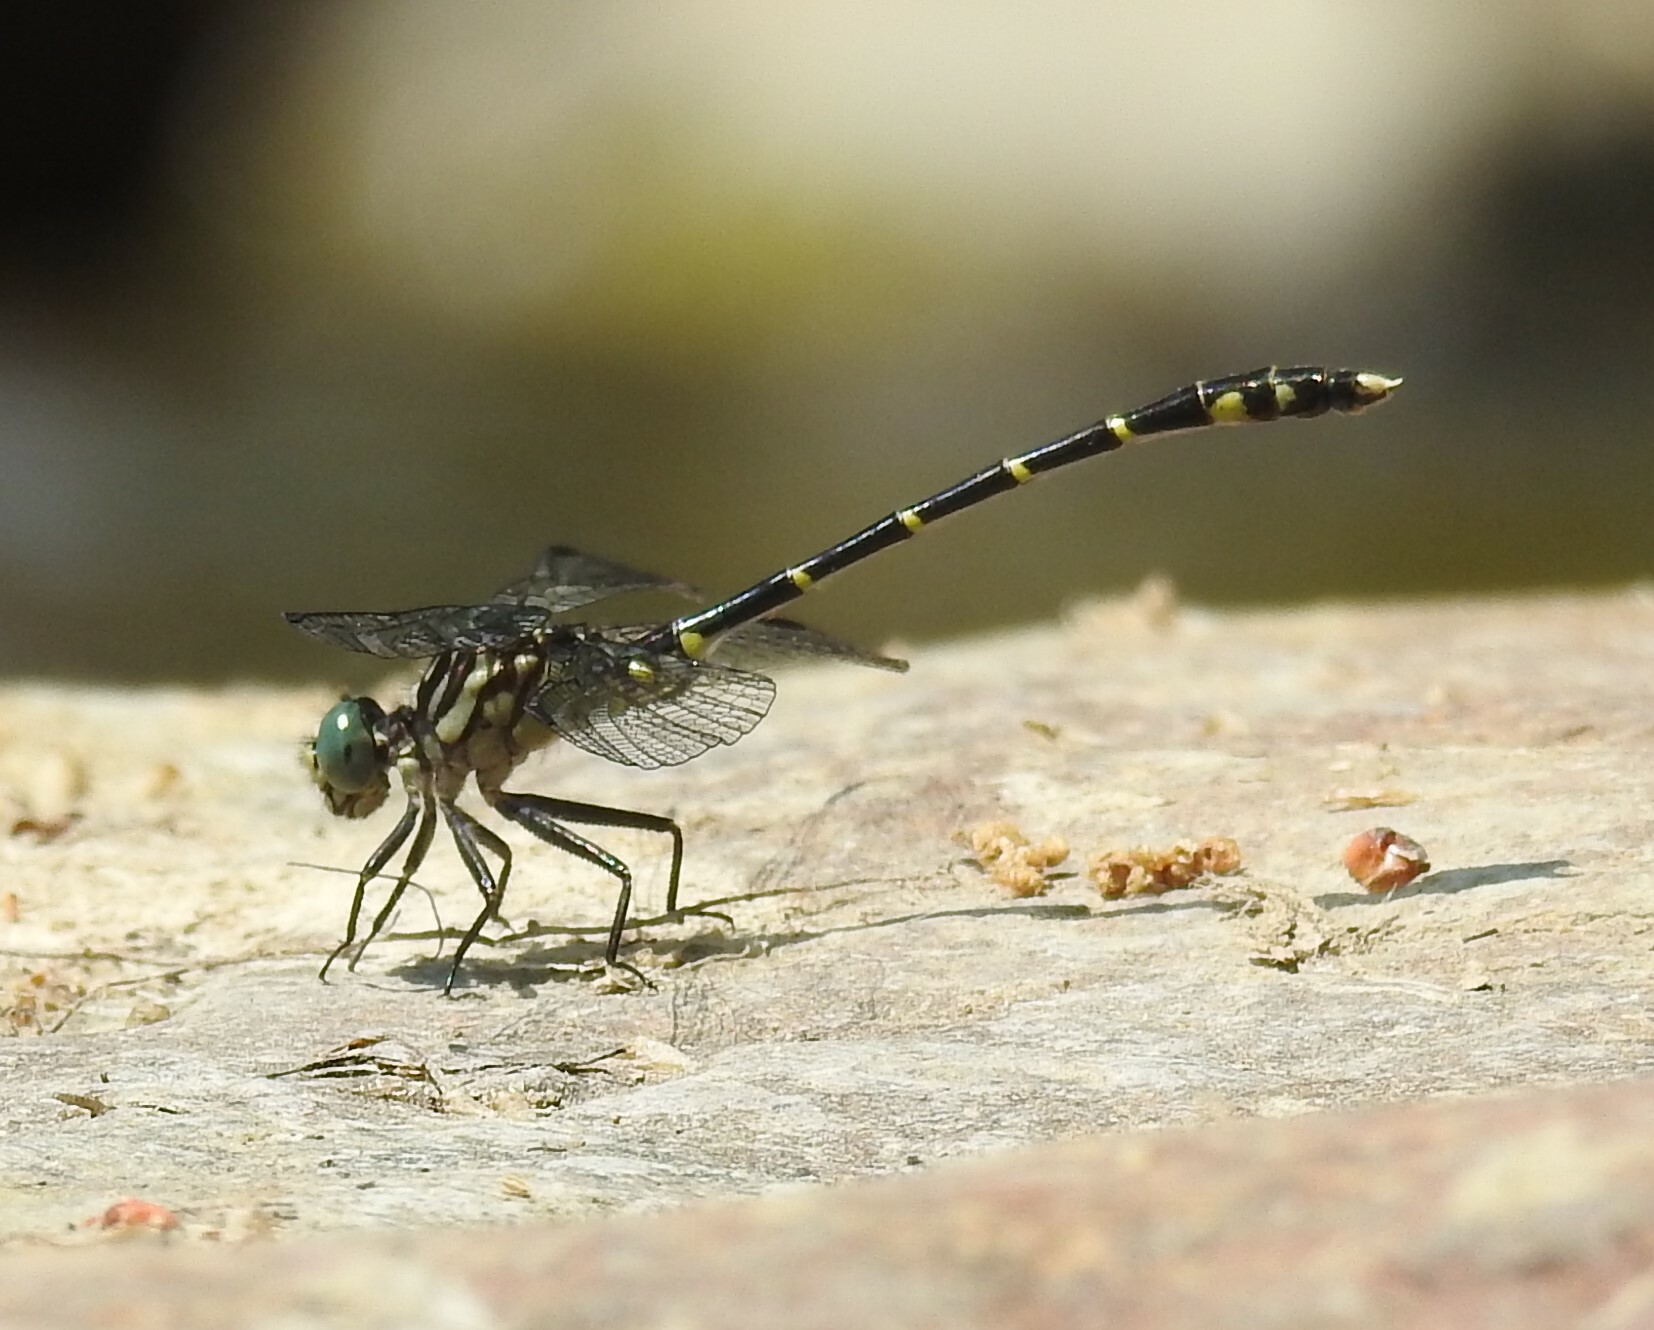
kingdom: Animalia
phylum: Arthropoda
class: Insecta
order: Odonata
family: Gomphidae
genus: Stylogomphus
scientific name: Stylogomphus albistylus
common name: Eastern least clubtail
